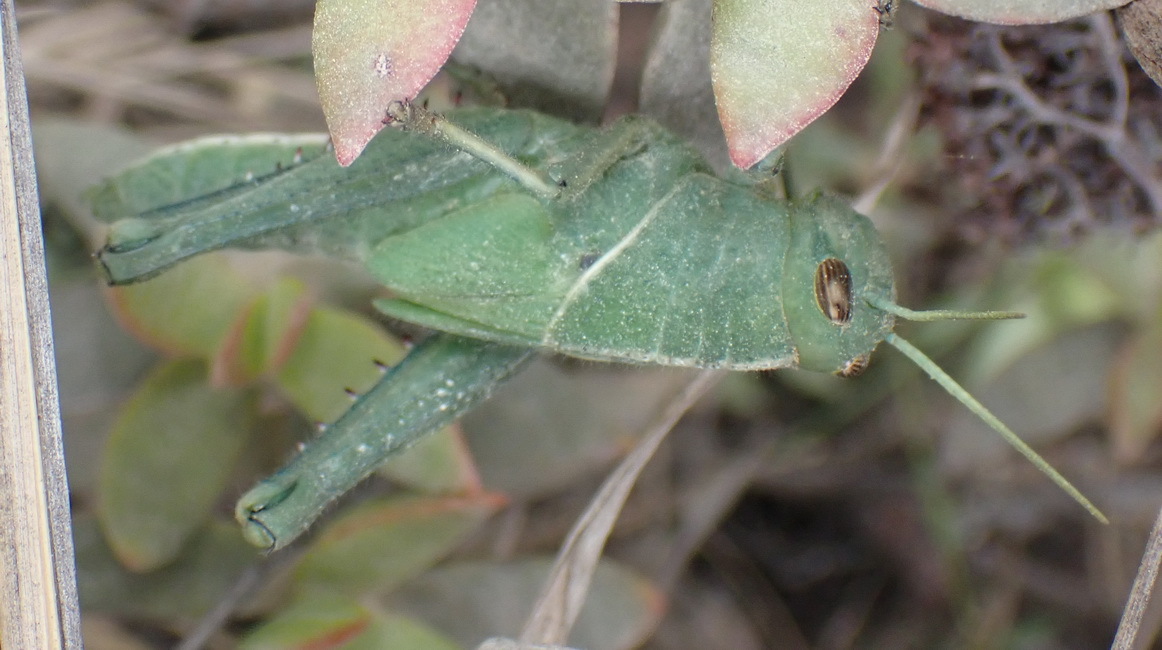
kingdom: Animalia
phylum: Arthropoda
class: Insecta
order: Orthoptera
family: Acrididae
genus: Acanthacris
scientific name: Acanthacris ruficornis
